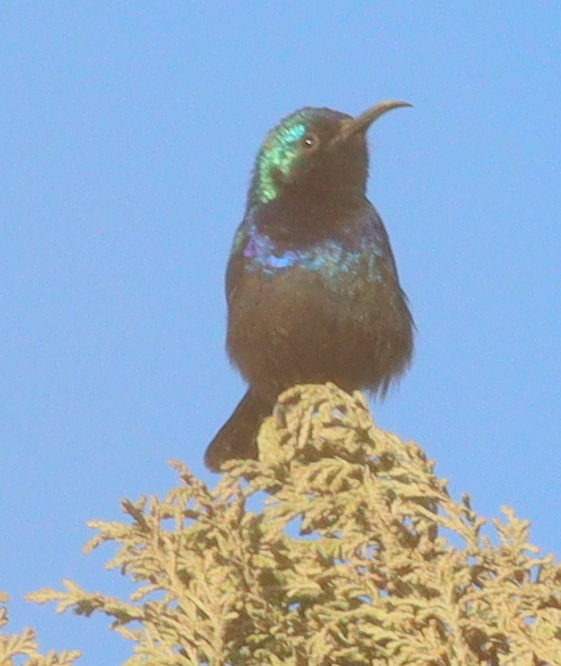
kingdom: Animalia
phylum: Chordata
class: Aves
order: Passeriformes
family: Nectariniidae
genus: Cinnyris
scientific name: Cinnyris osea
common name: Palestine sunbird
